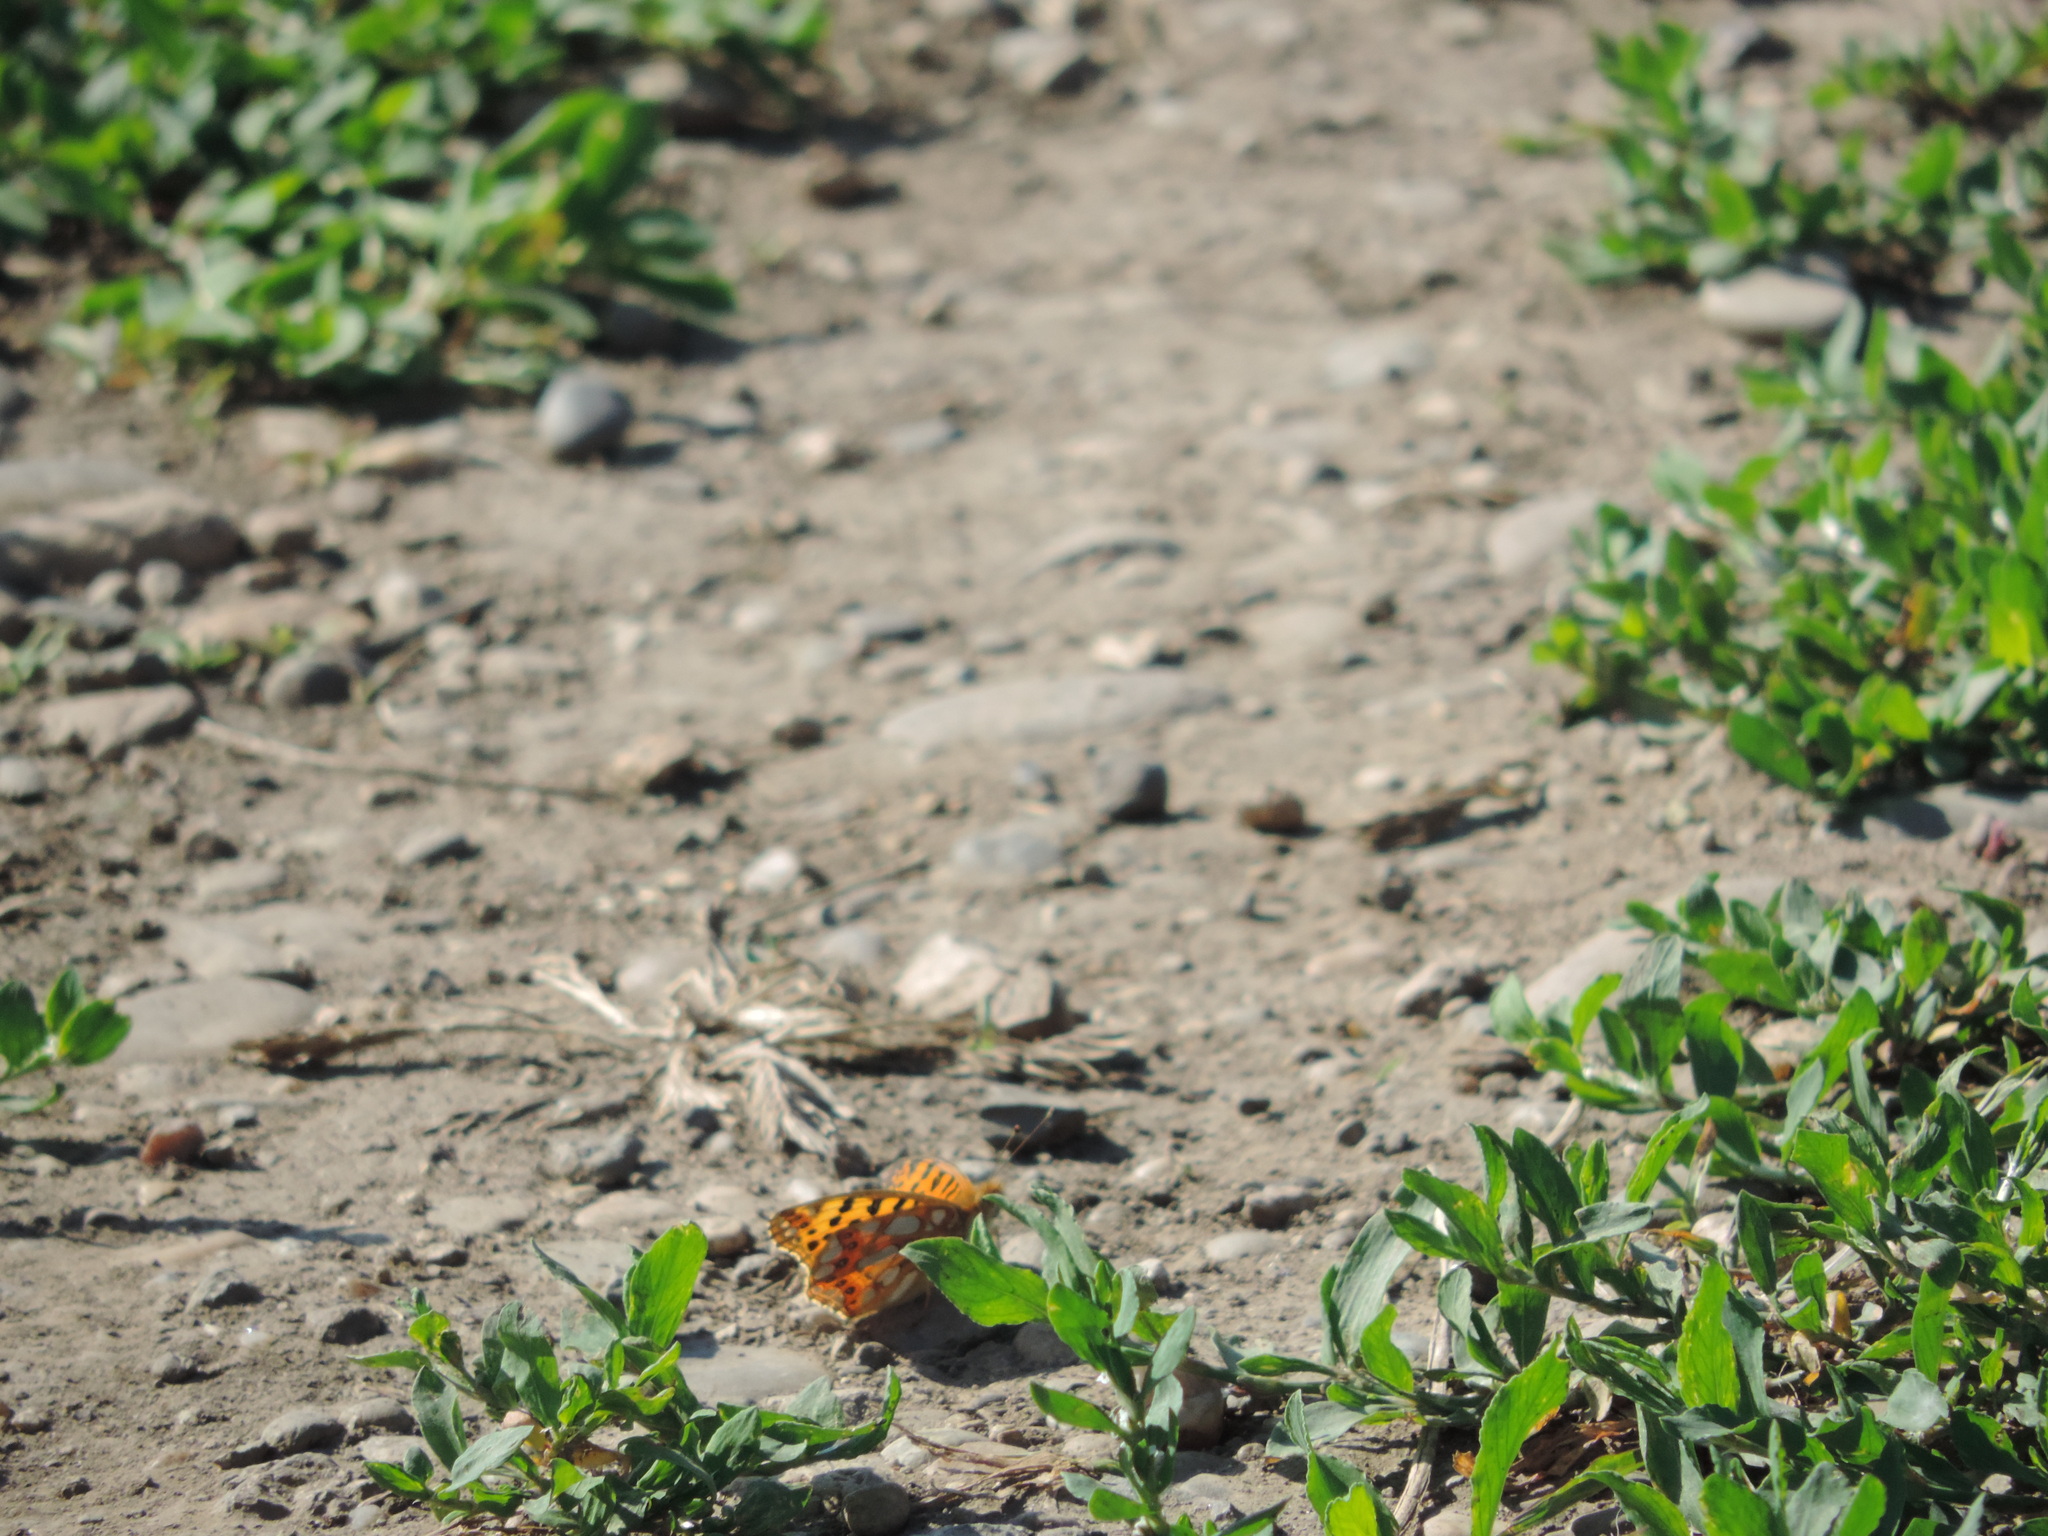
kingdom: Animalia
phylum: Arthropoda
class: Insecta
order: Lepidoptera
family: Nymphalidae
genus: Issoria
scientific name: Issoria lathonia
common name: Queen of spain fritillary
